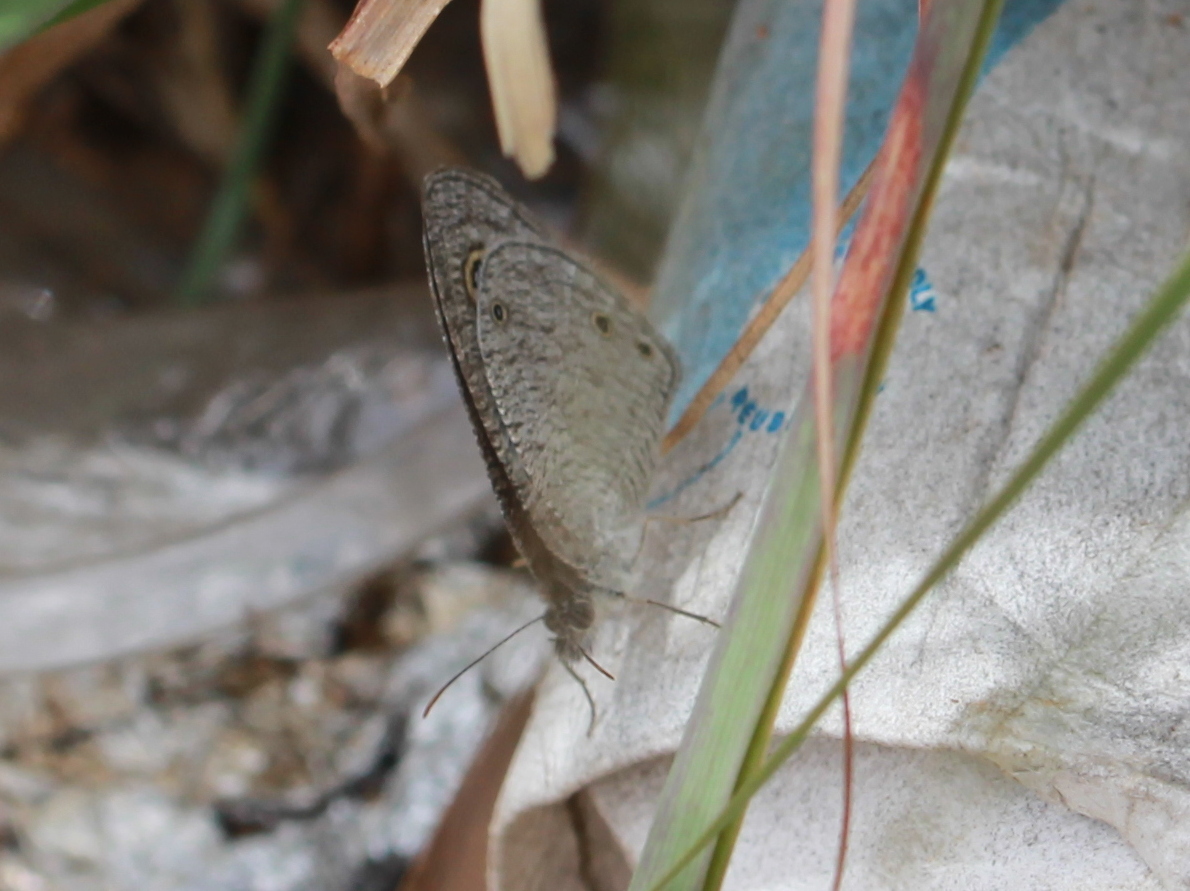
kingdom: Animalia
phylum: Arthropoda
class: Insecta
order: Lepidoptera
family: Nymphalidae
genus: Ypthima
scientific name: Ypthima asterope
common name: African ringlet
